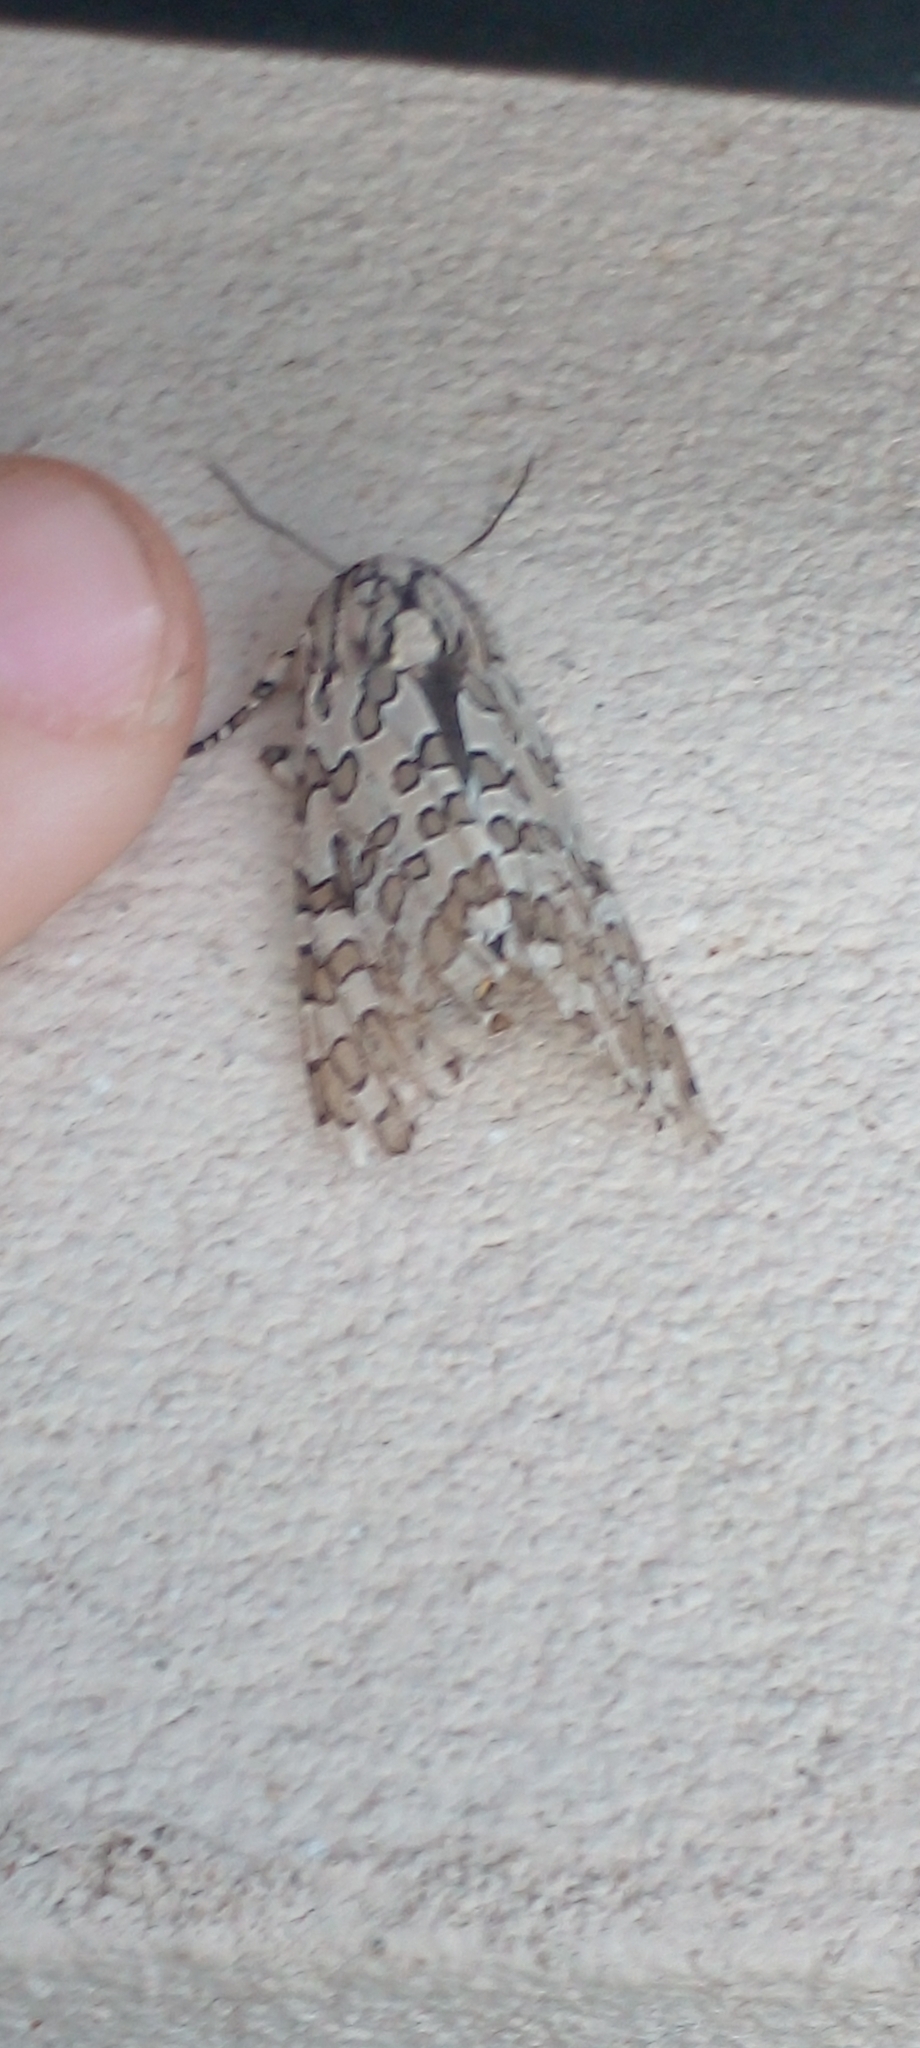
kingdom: Animalia
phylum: Arthropoda
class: Insecta
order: Lepidoptera
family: Erebidae
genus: Hypercompe
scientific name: Hypercompe indecisa
